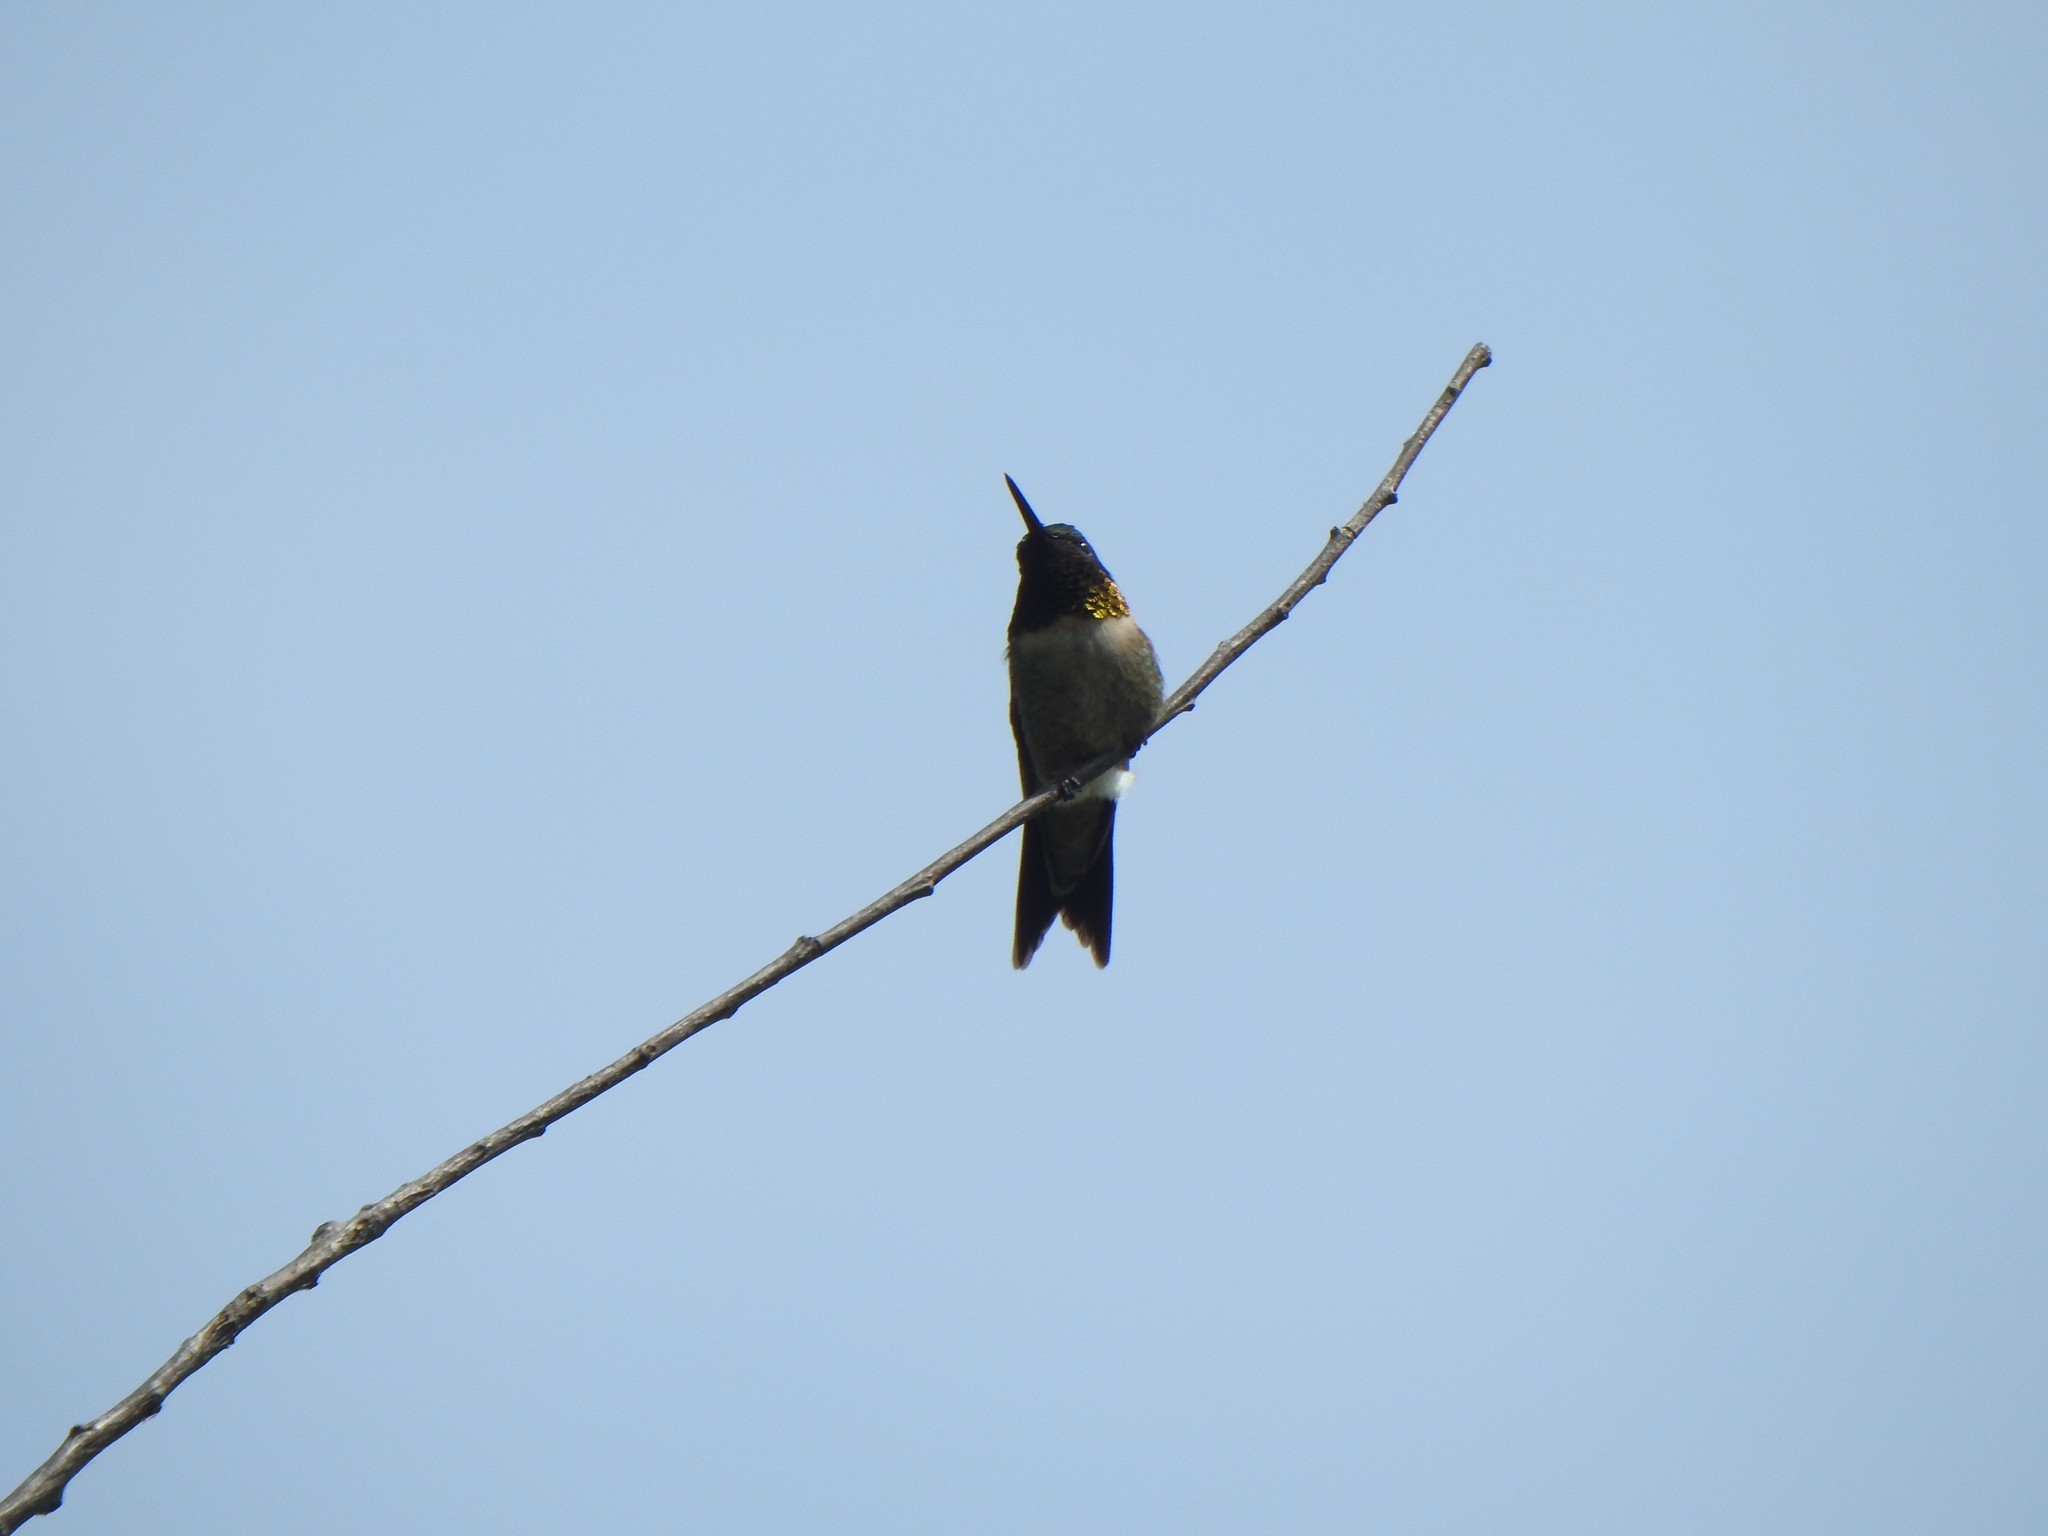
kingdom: Animalia
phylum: Chordata
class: Aves
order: Apodiformes
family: Trochilidae
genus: Archilochus
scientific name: Archilochus colubris
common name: Ruby-throated hummingbird
